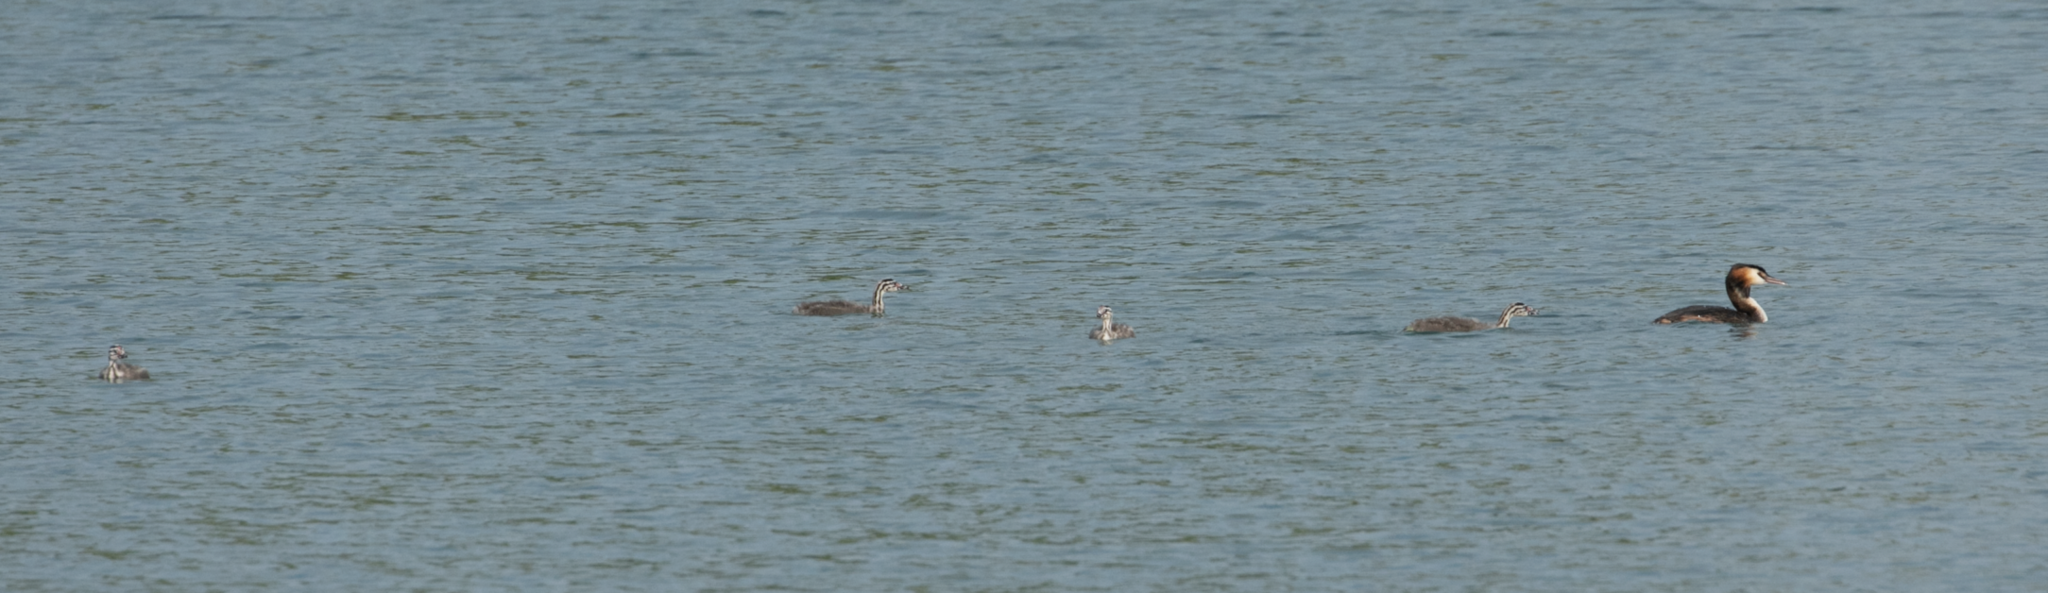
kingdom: Animalia
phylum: Chordata
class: Aves
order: Podicipediformes
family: Podicipedidae
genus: Podiceps
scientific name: Podiceps cristatus
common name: Great crested grebe
